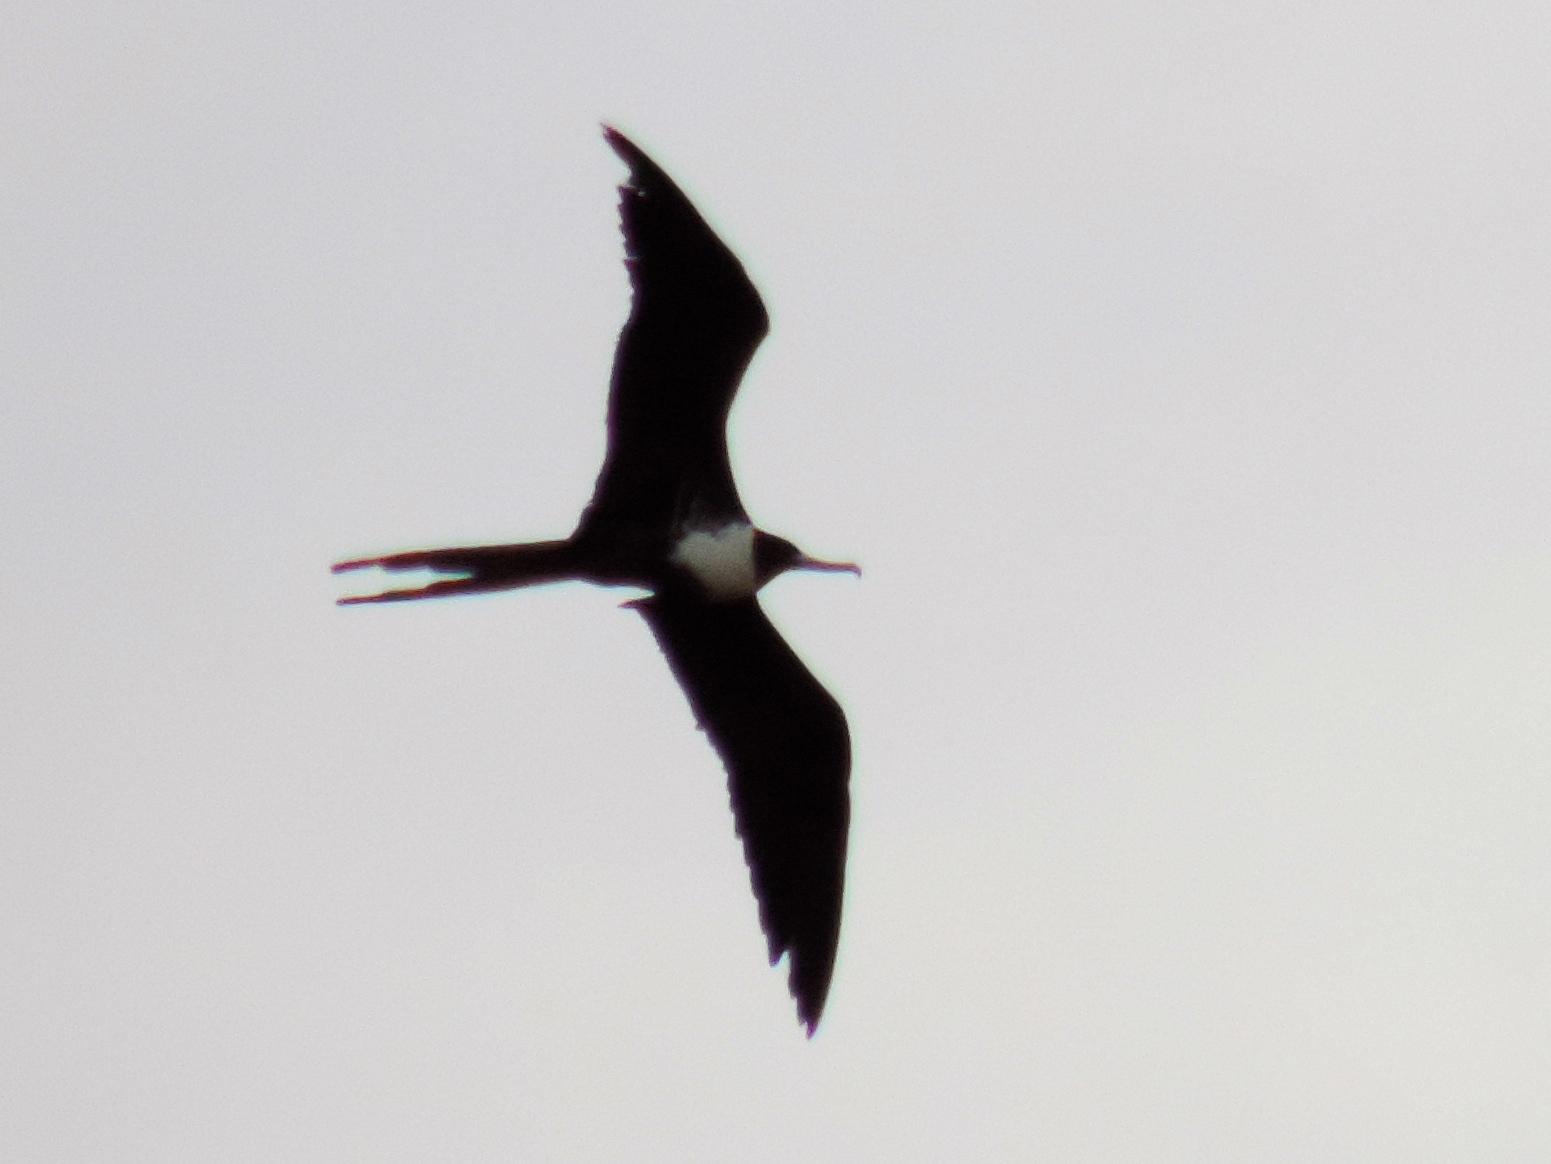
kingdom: Animalia
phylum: Chordata
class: Aves
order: Suliformes
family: Fregatidae
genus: Fregata
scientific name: Fregata magnificens
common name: Magnificent frigatebird
